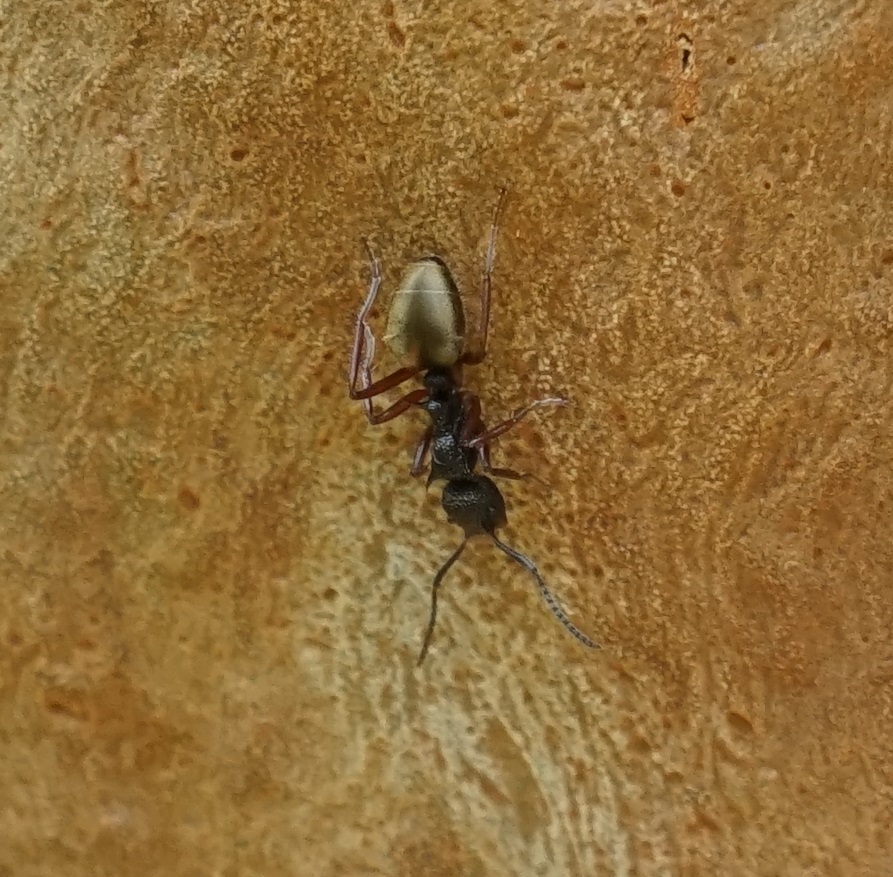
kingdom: Animalia
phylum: Arthropoda
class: Insecta
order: Hymenoptera
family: Formicidae
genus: Dolichoderus
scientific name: Dolichoderus doriae
